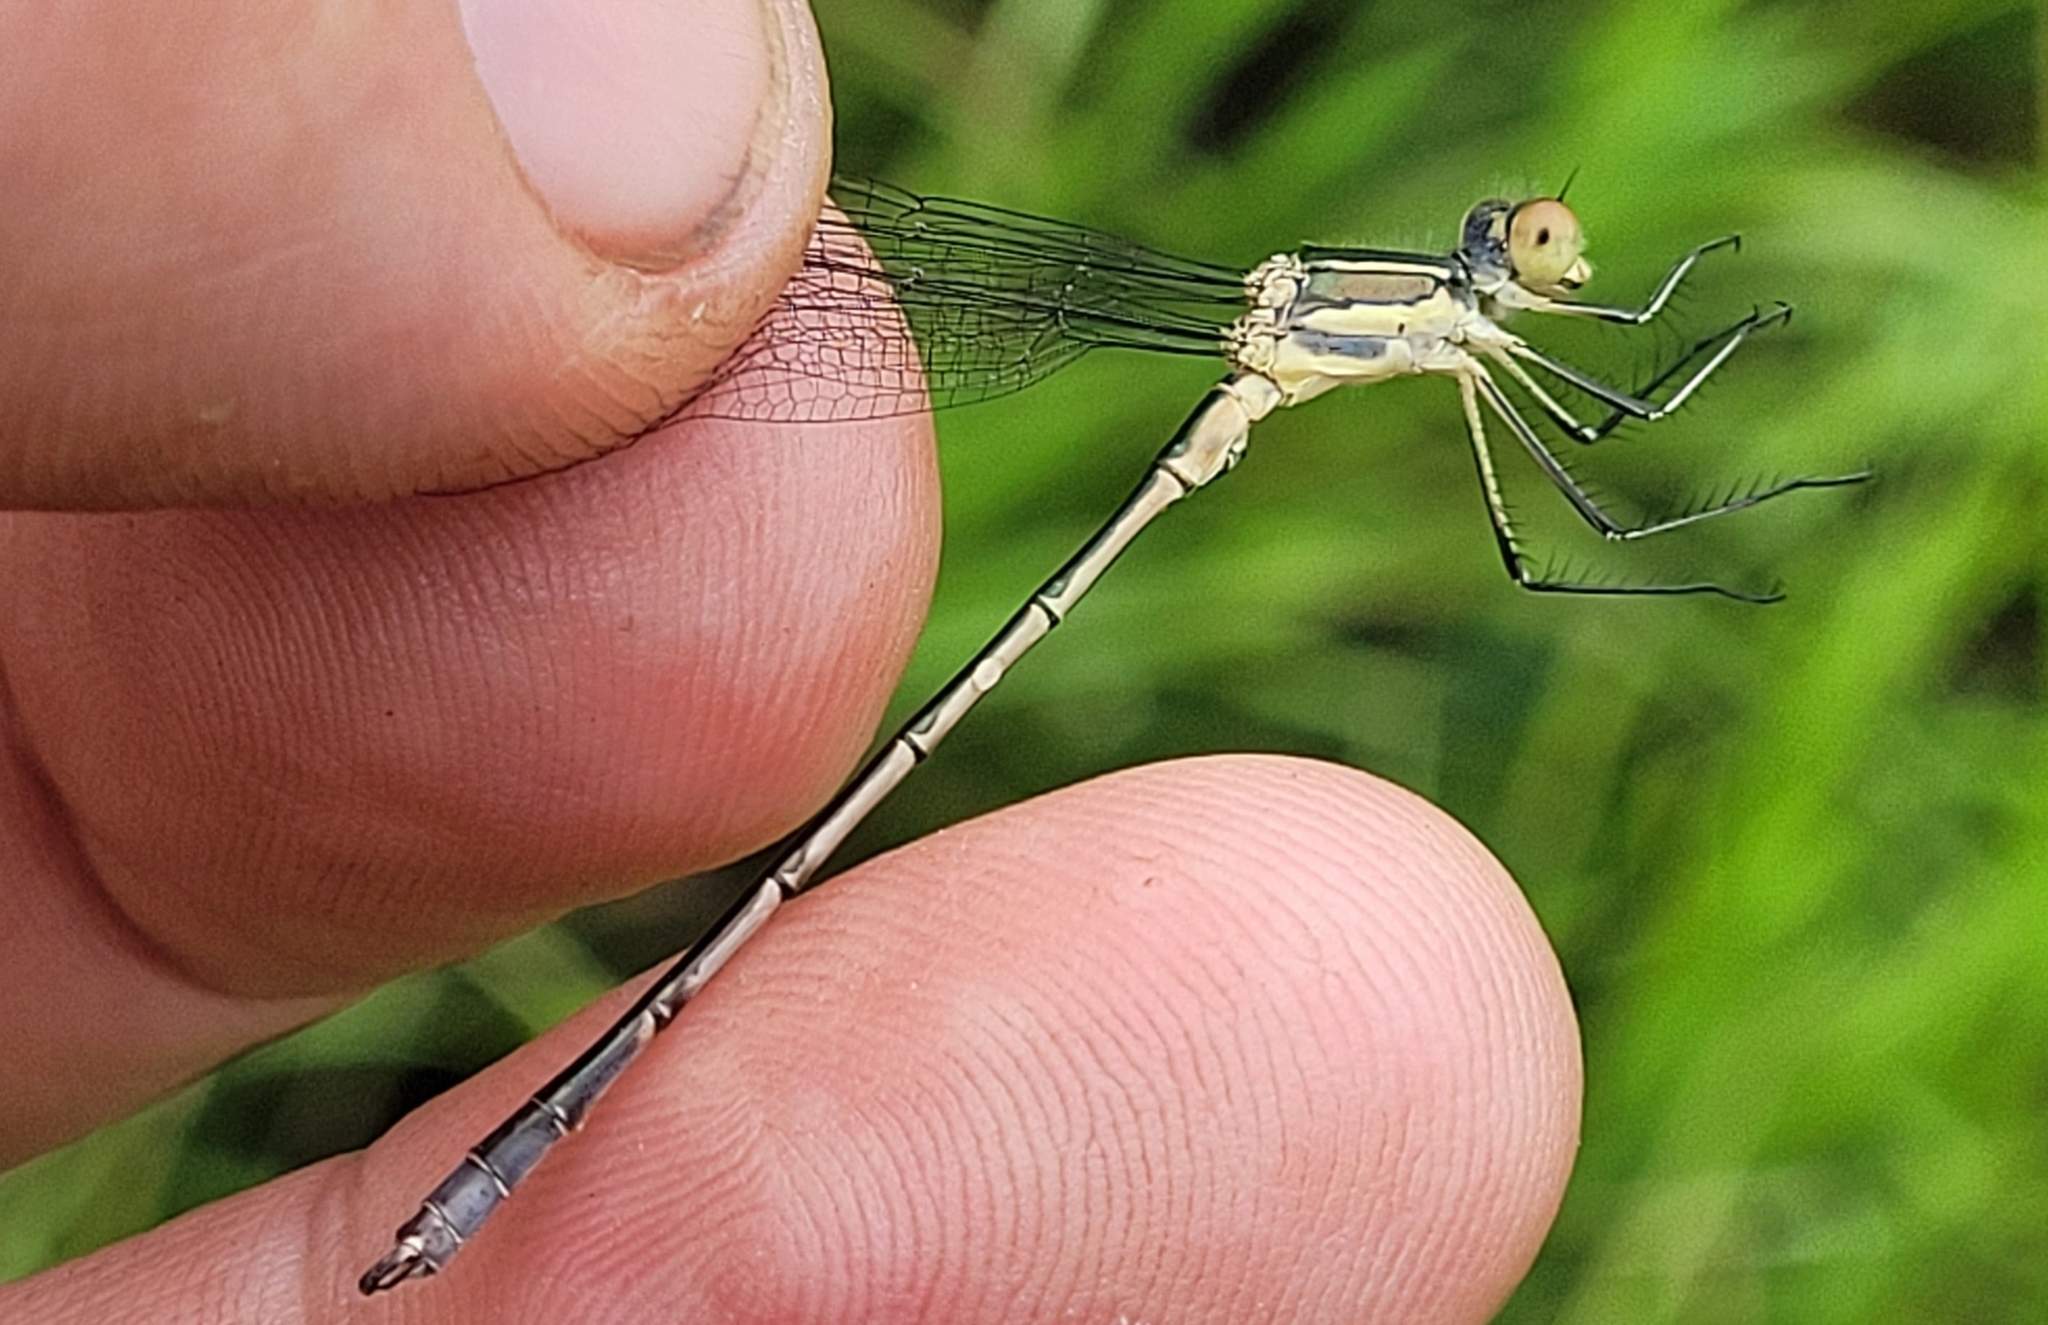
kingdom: Animalia
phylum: Arthropoda
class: Insecta
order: Odonata
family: Lestidae
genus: Lestes
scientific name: Lestes unguiculatus
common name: Lyre-tipped spreadwing
